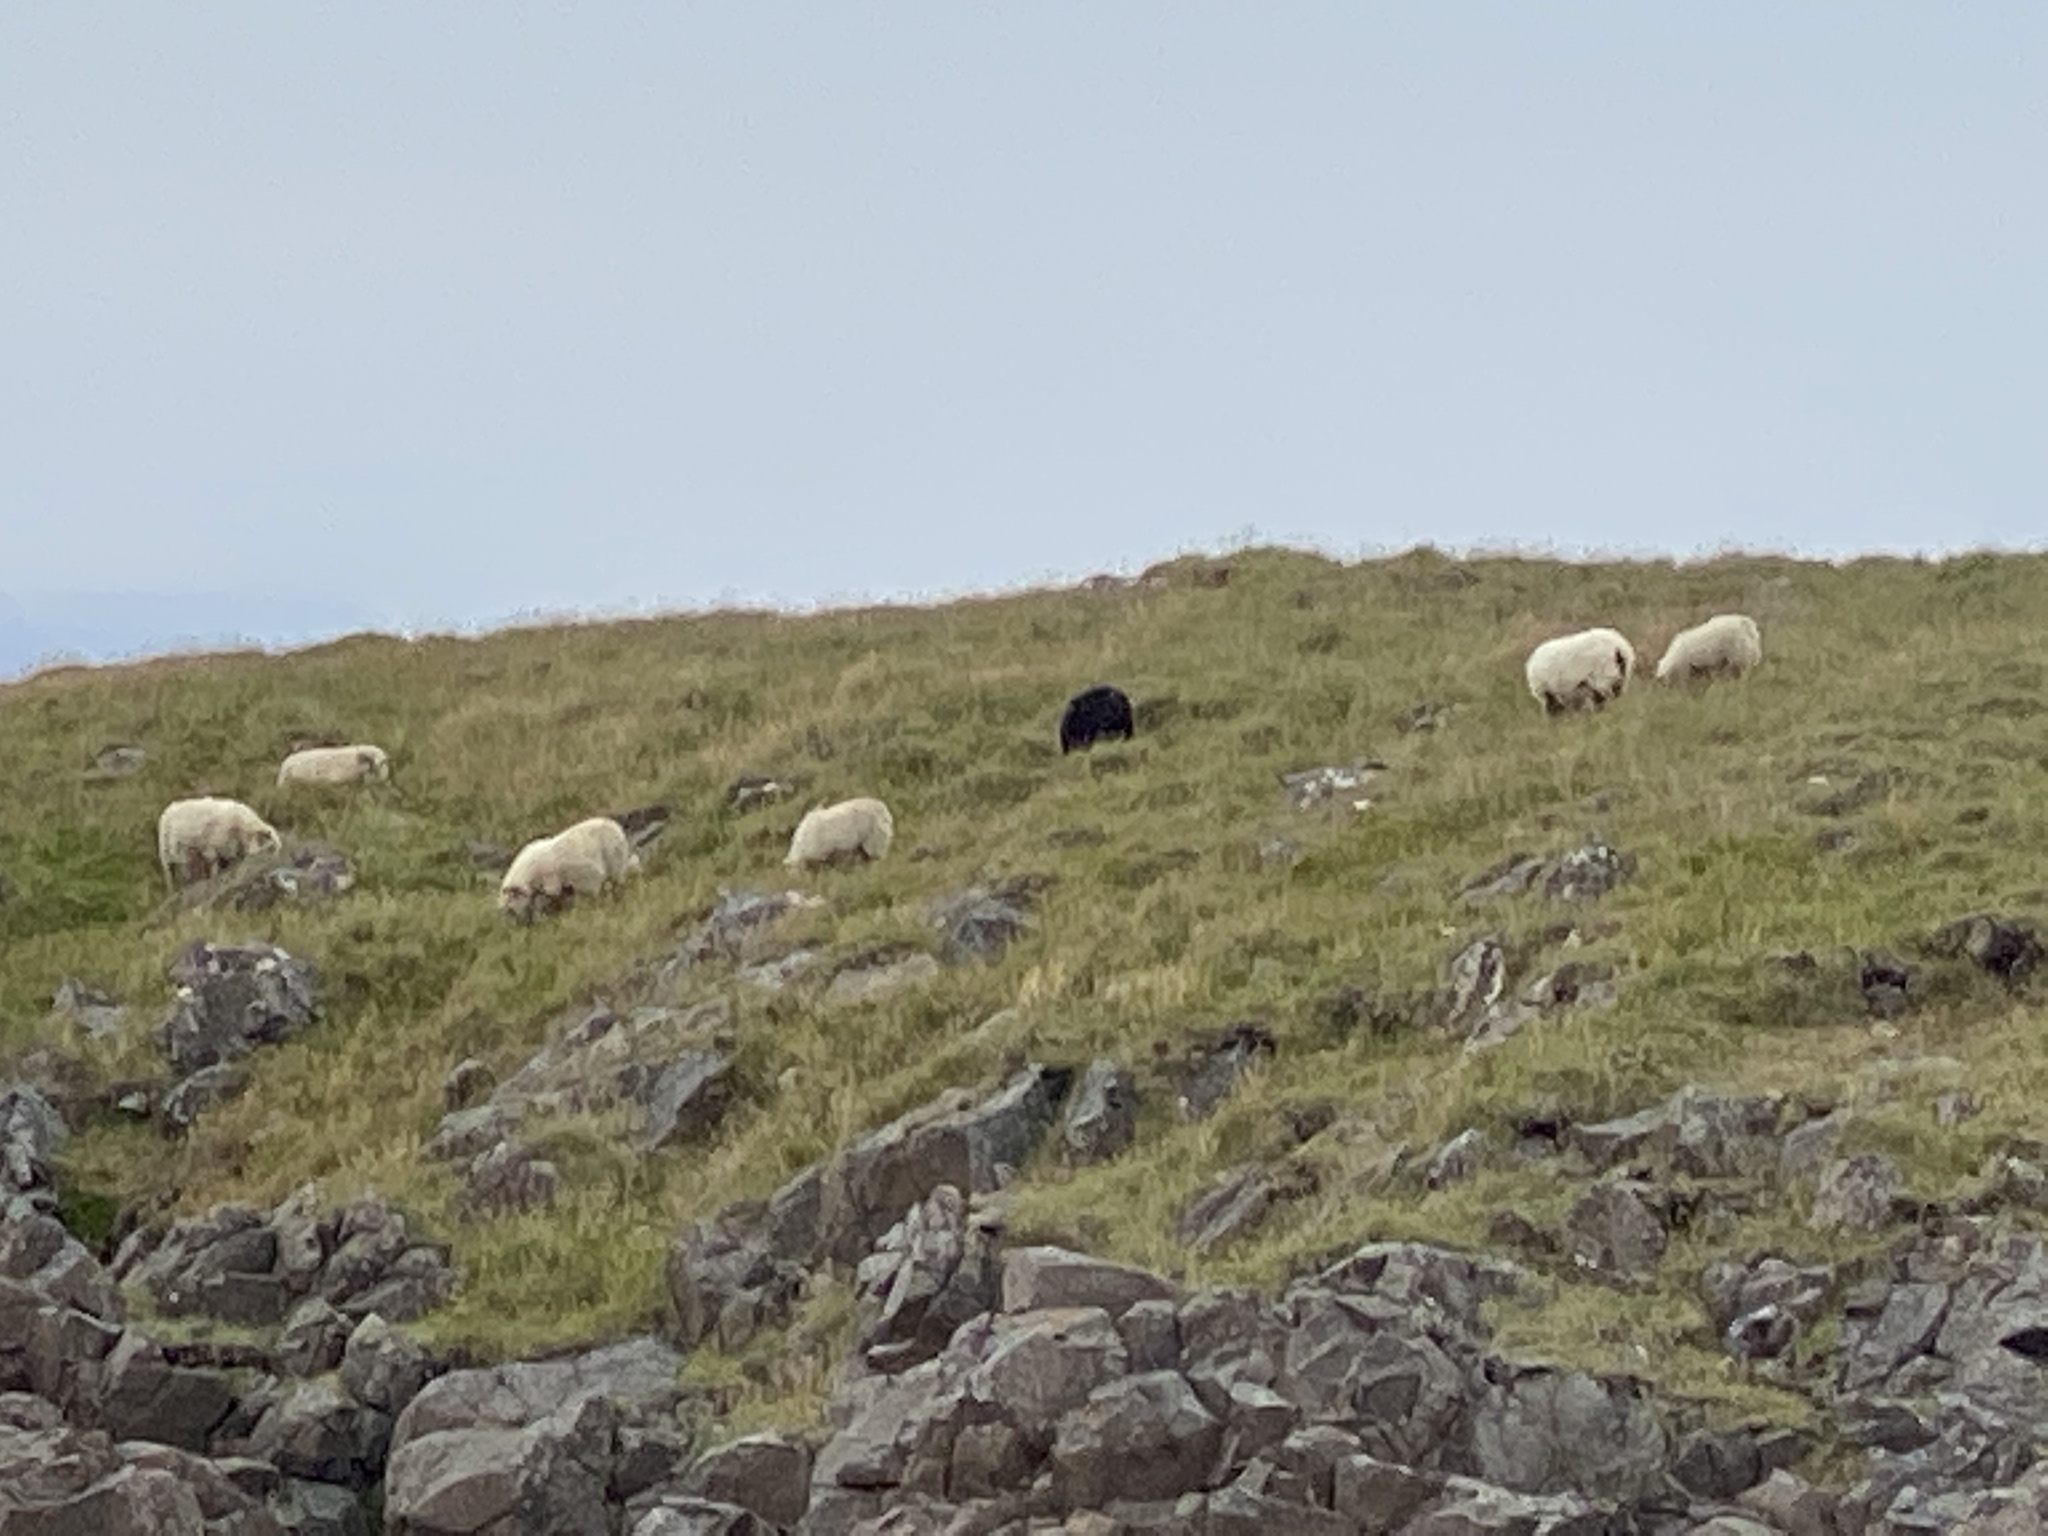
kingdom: Animalia
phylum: Chordata
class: Mammalia
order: Artiodactyla
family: Bovidae
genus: Ovis
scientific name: Ovis aries
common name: Domestic sheep
